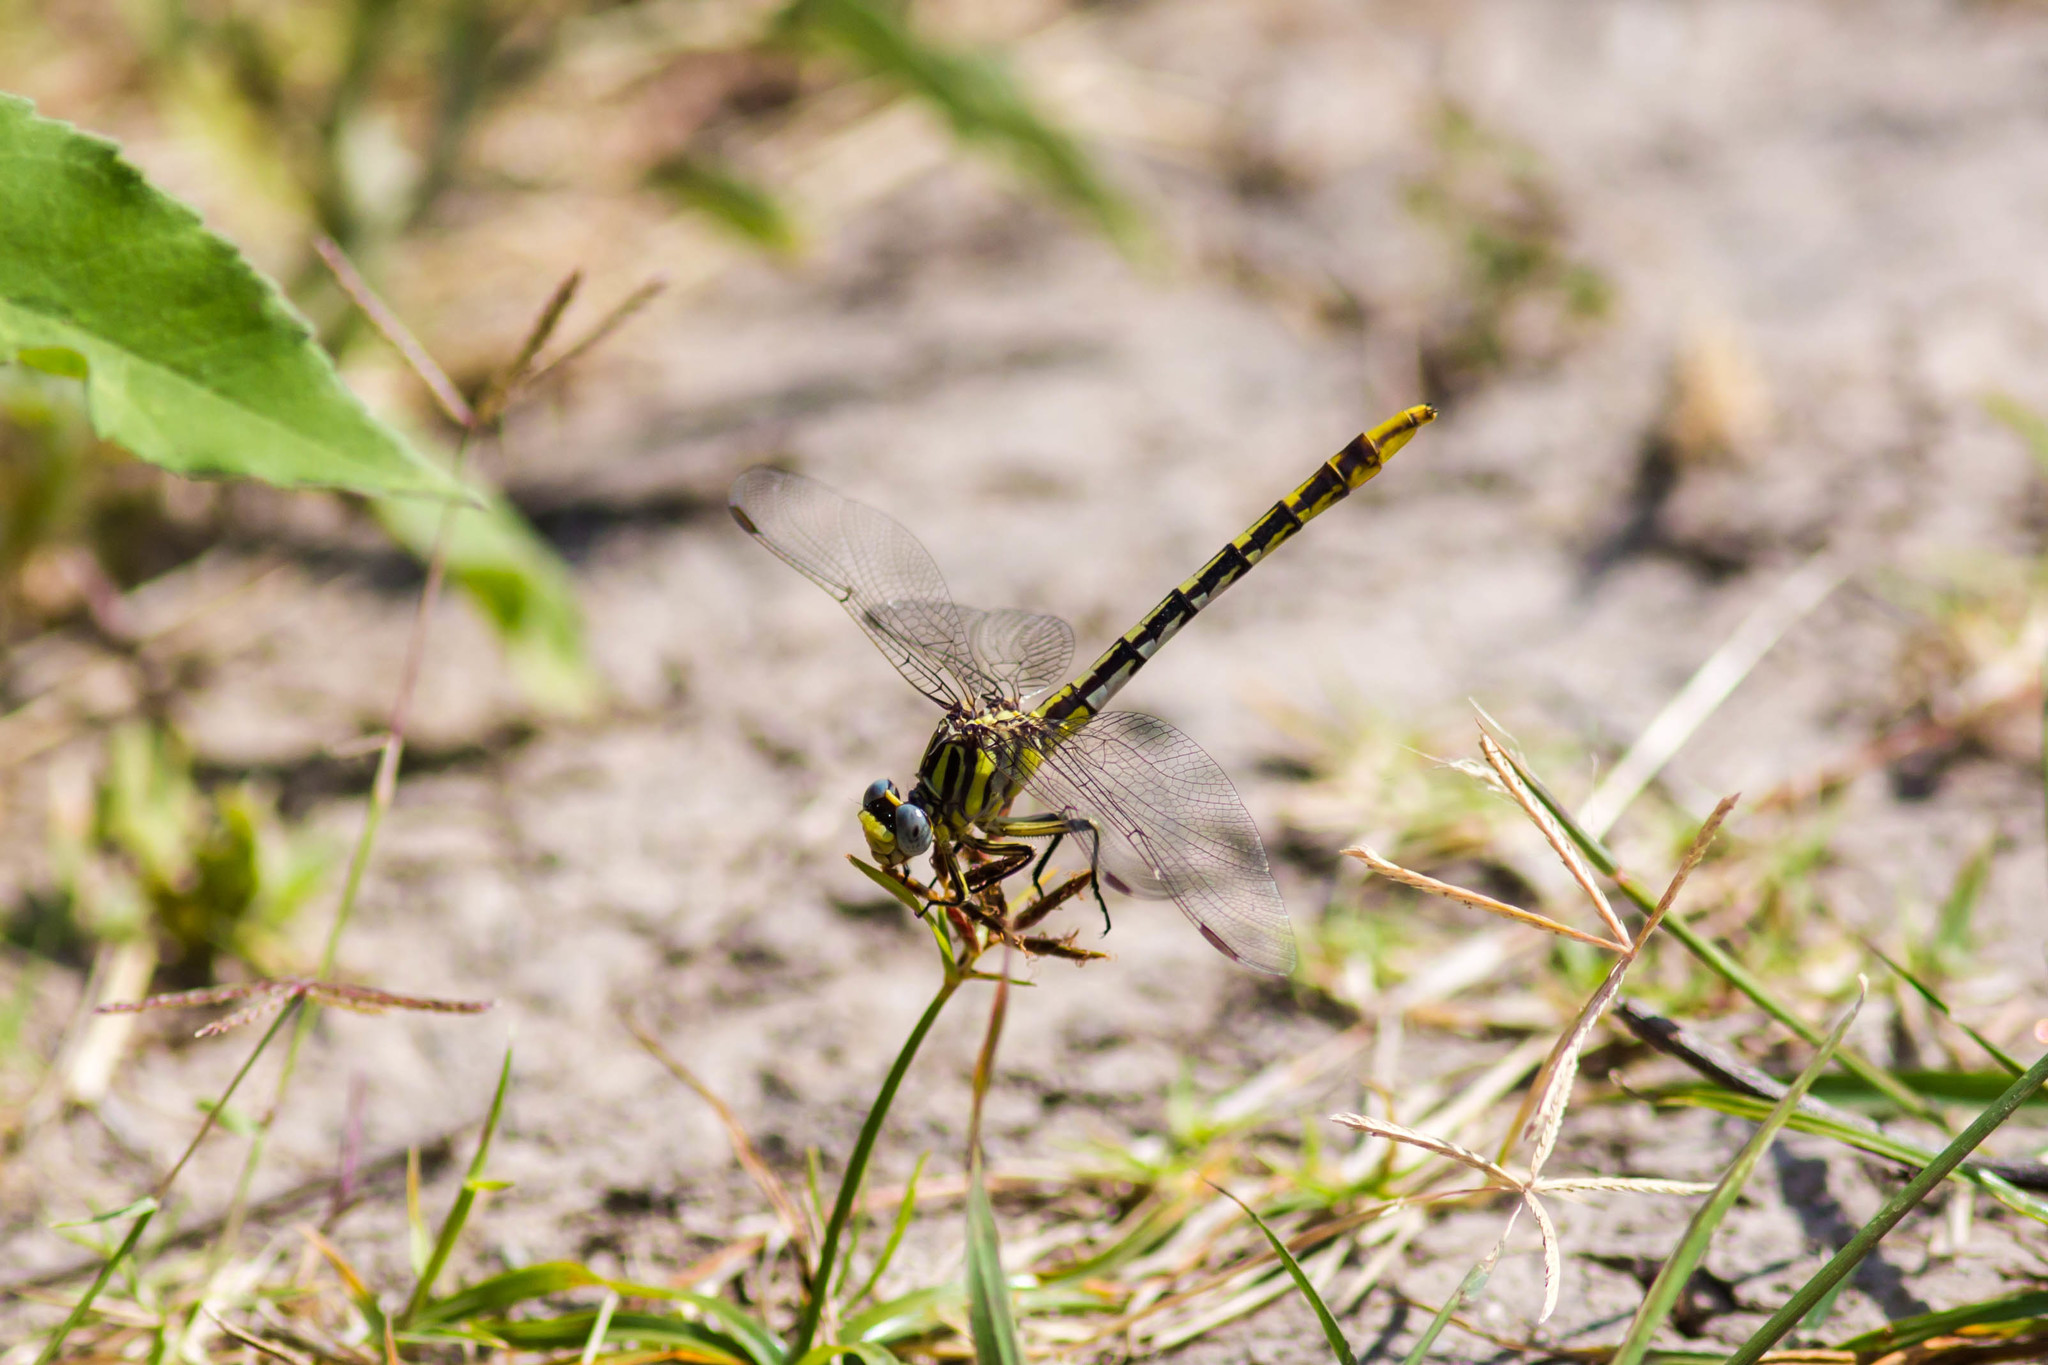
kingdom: Animalia
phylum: Arthropoda
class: Insecta
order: Odonata
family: Gomphidae
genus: Phanogomphus
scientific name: Phanogomphus militaris
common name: Sulphur-tipped clubtail
